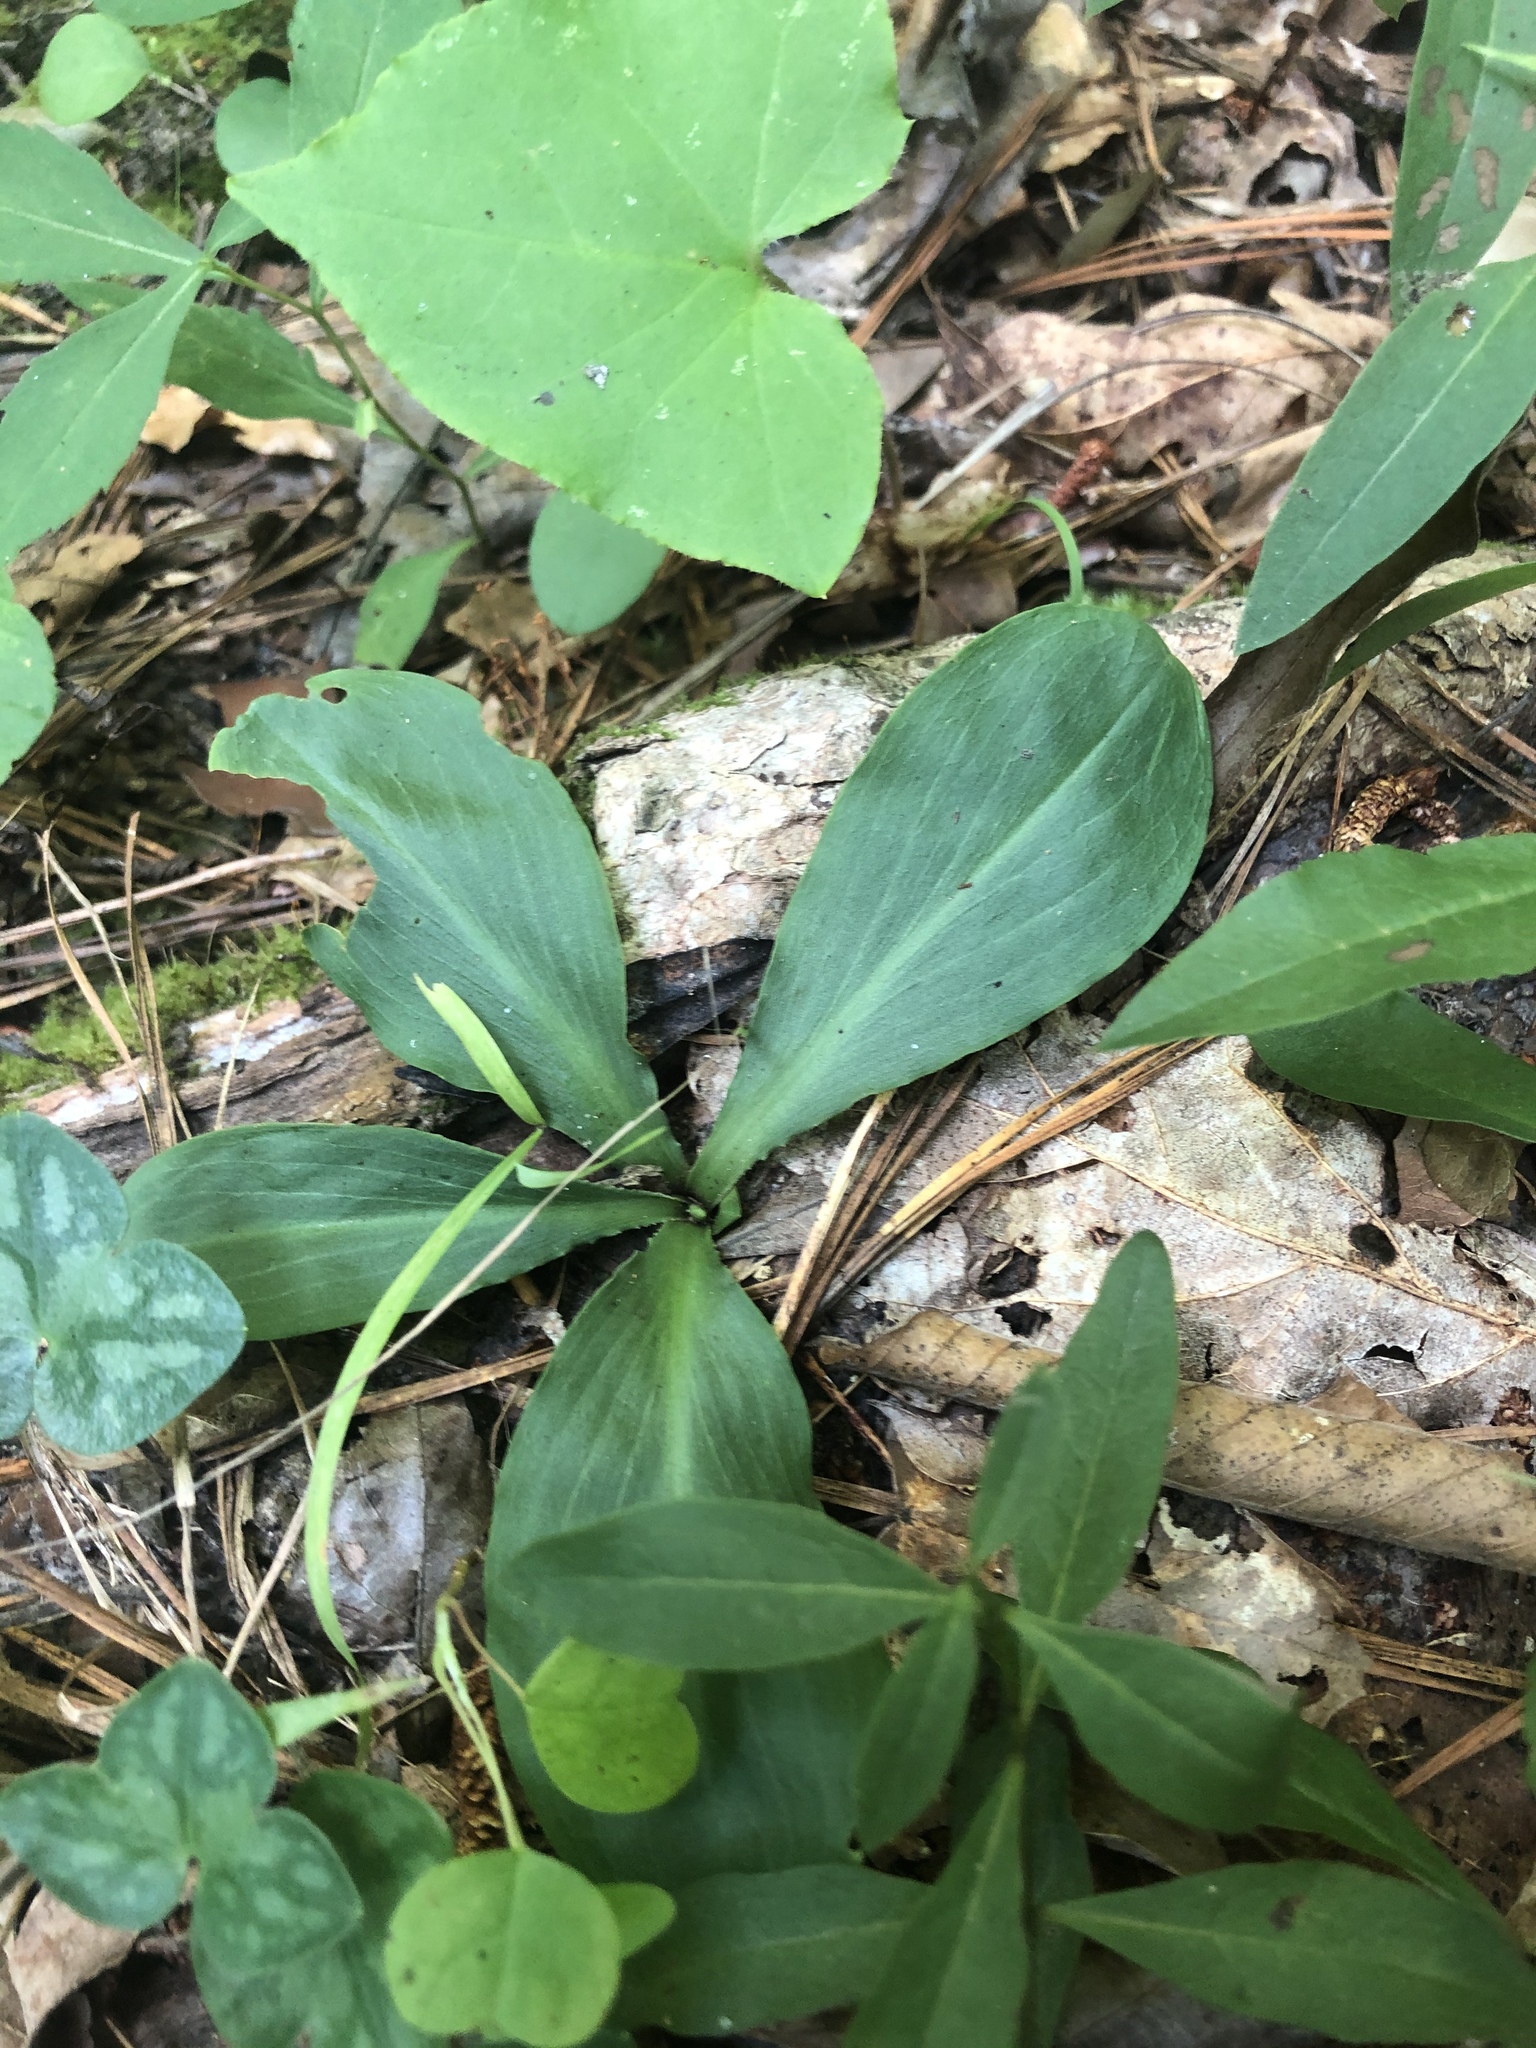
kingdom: Plantae
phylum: Tracheophyta
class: Liliopsida
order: Liliales
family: Melanthiaceae
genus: Chamaelirium
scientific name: Chamaelirium luteum
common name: Fairy-wand
